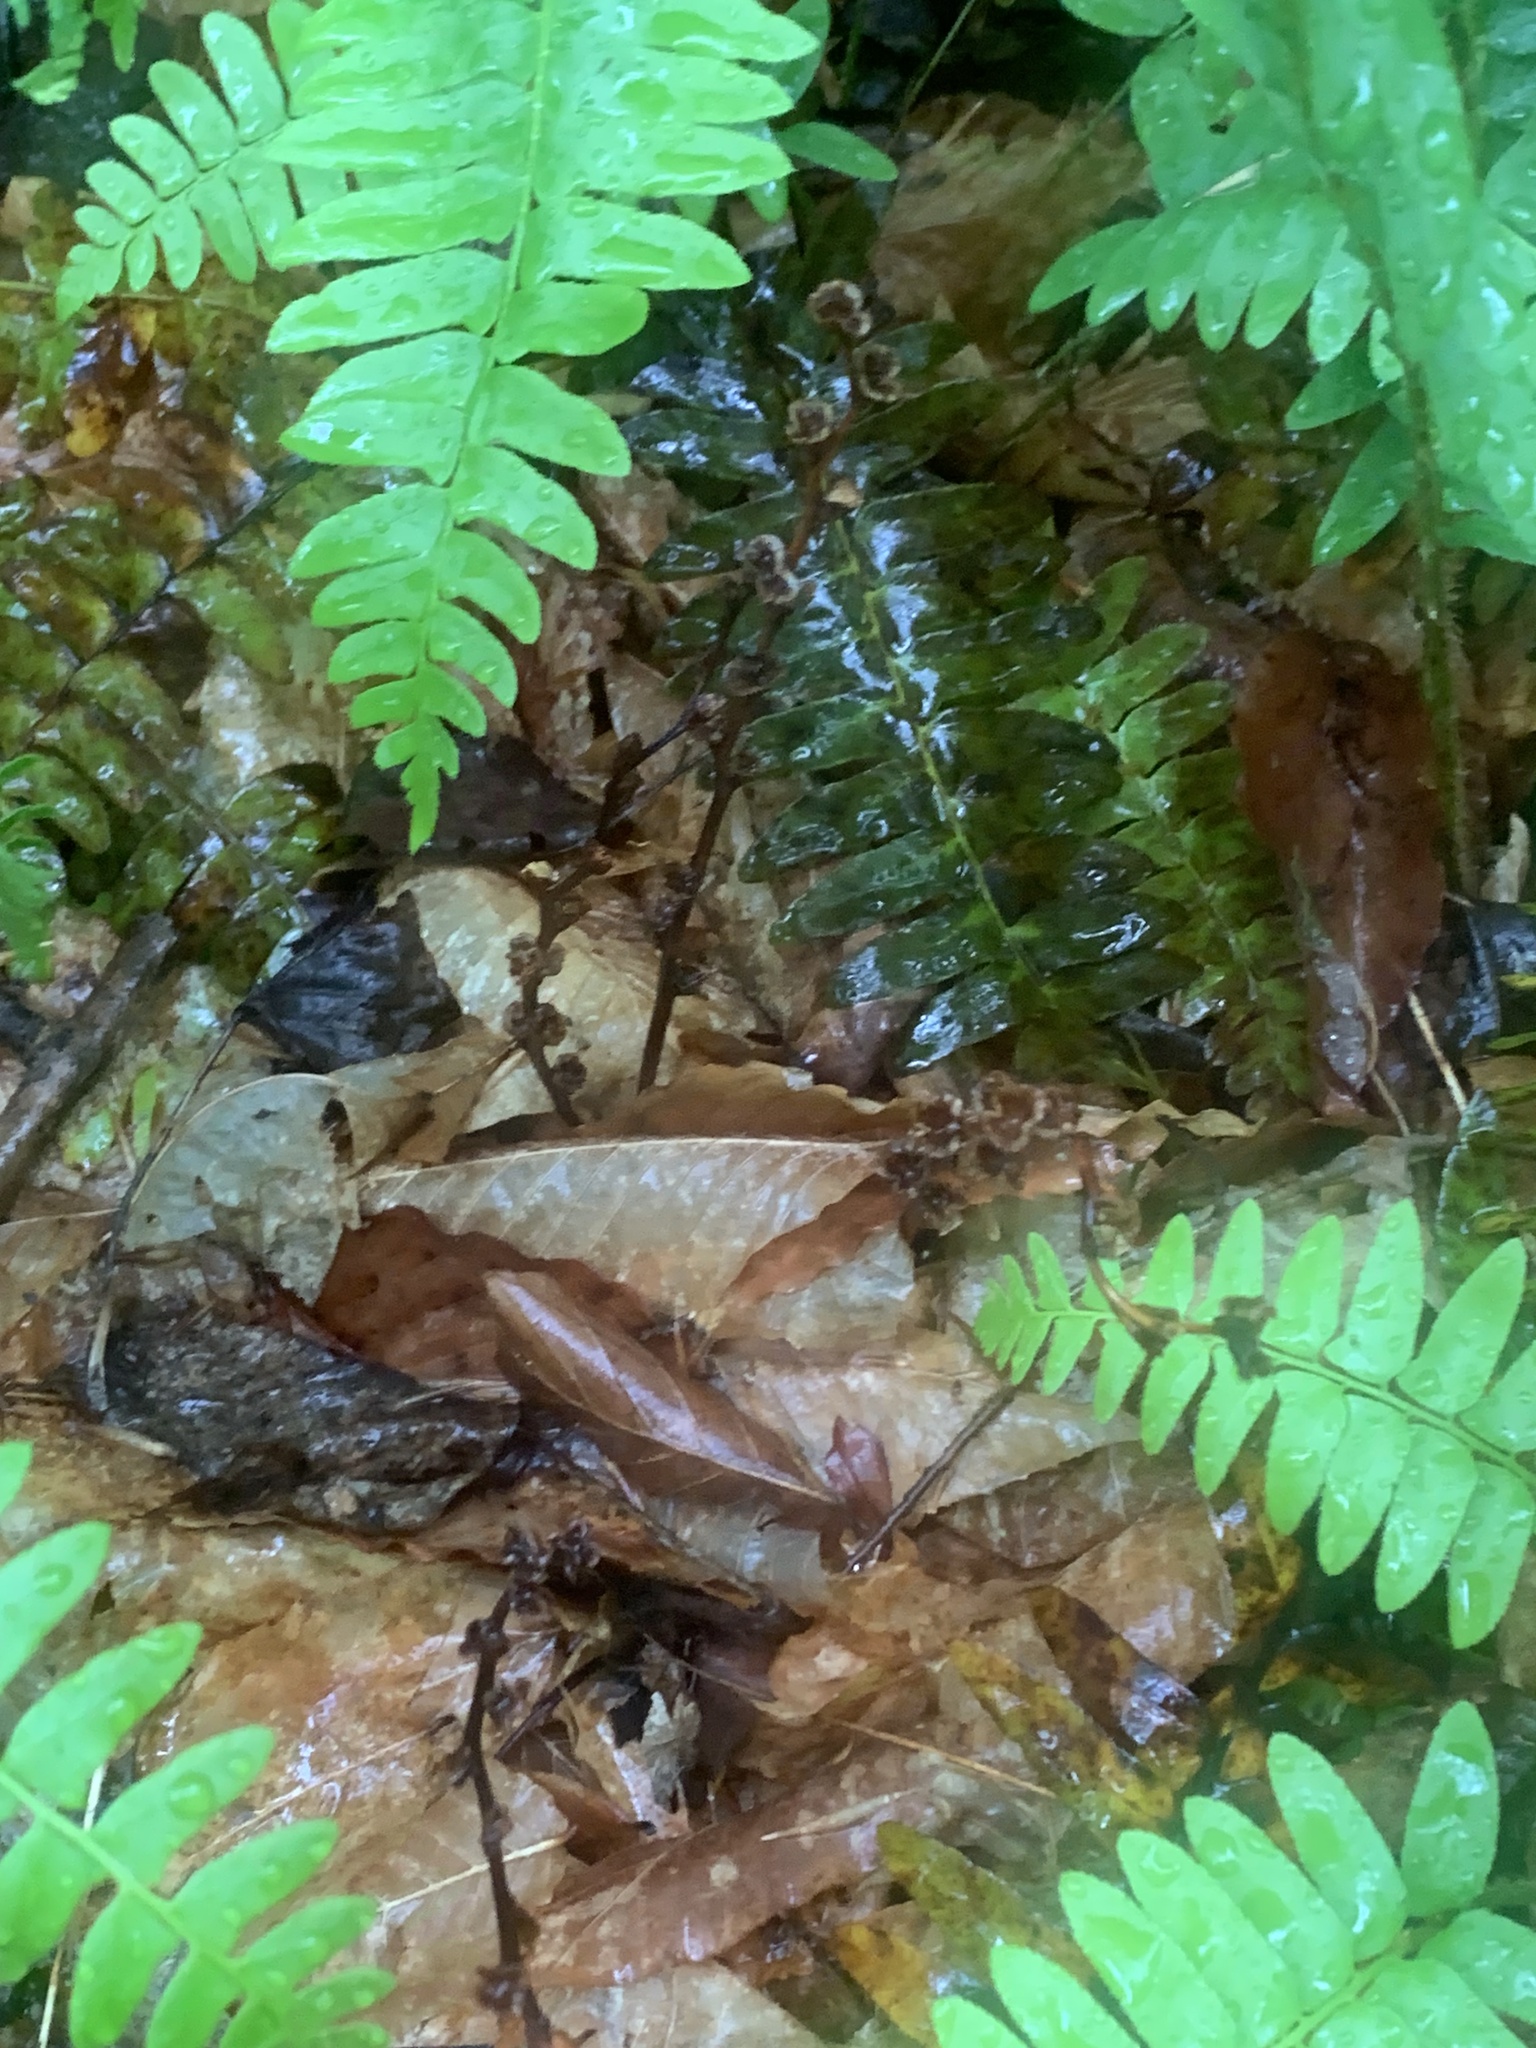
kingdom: Plantae
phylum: Tracheophyta
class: Magnoliopsida
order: Lamiales
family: Orobanchaceae
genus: Epifagus
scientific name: Epifagus virginiana
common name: Beechdrops
